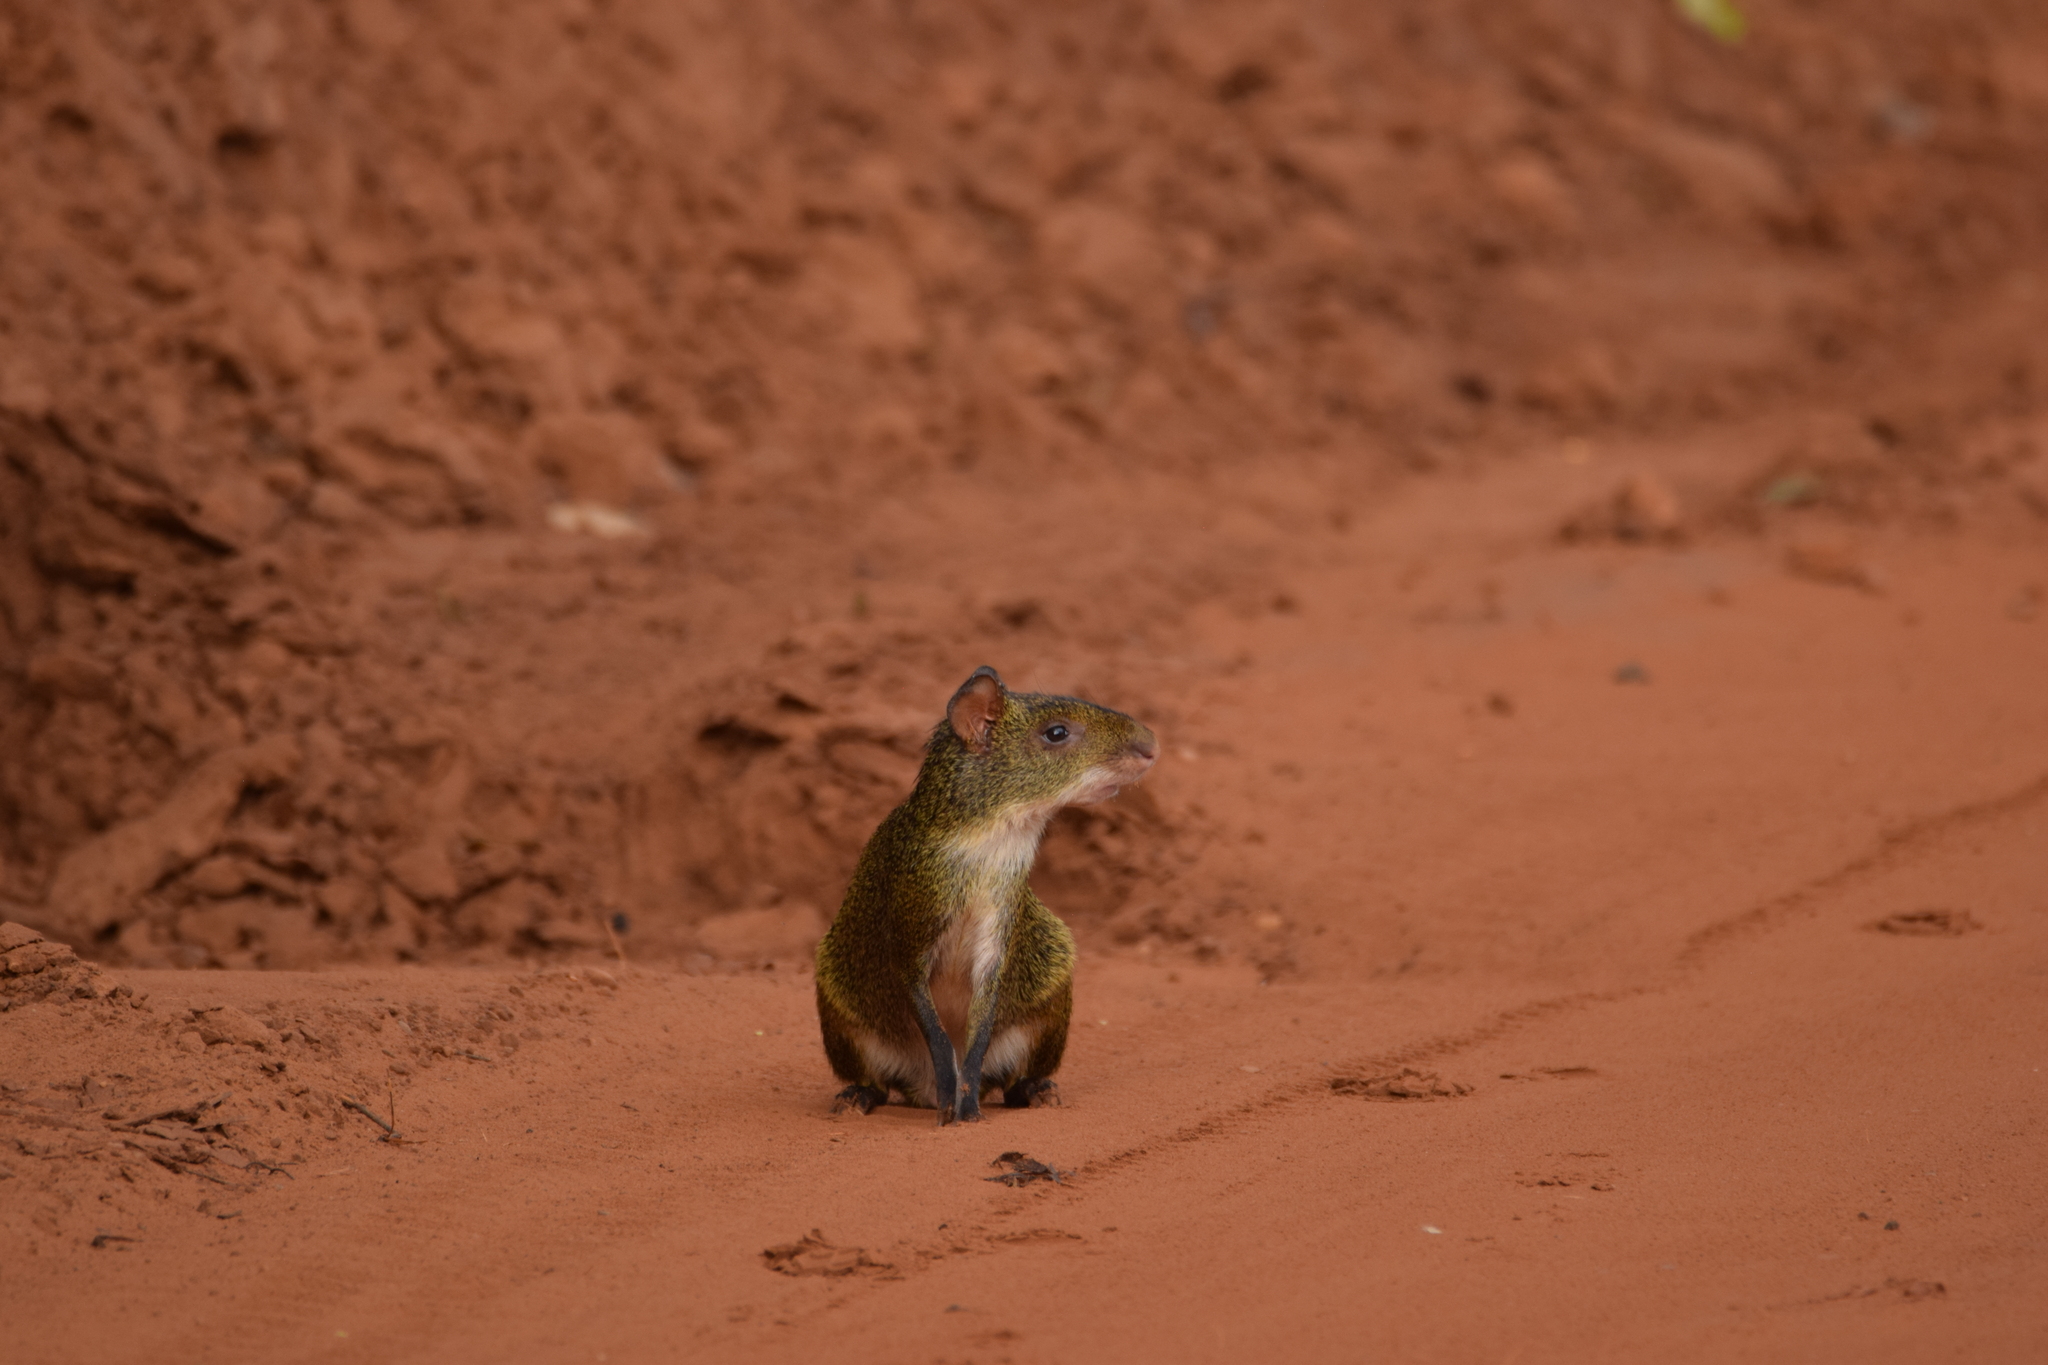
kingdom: Animalia
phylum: Chordata
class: Mammalia
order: Rodentia
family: Dasyproctidae
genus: Dasyprocta
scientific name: Dasyprocta azarae
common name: Azara's agouti
